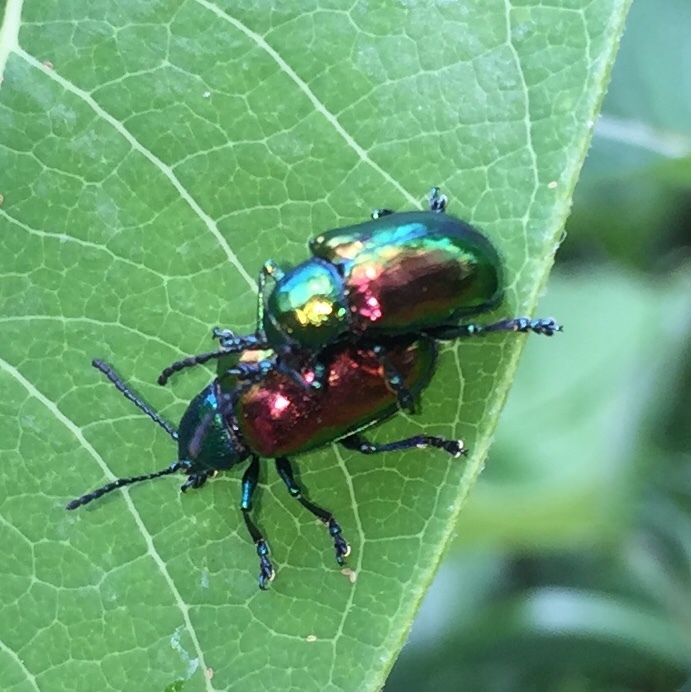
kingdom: Animalia
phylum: Arthropoda
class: Insecta
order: Coleoptera
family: Chrysomelidae
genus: Chrysochus
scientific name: Chrysochus auratus
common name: Dogbane leaf beetle
